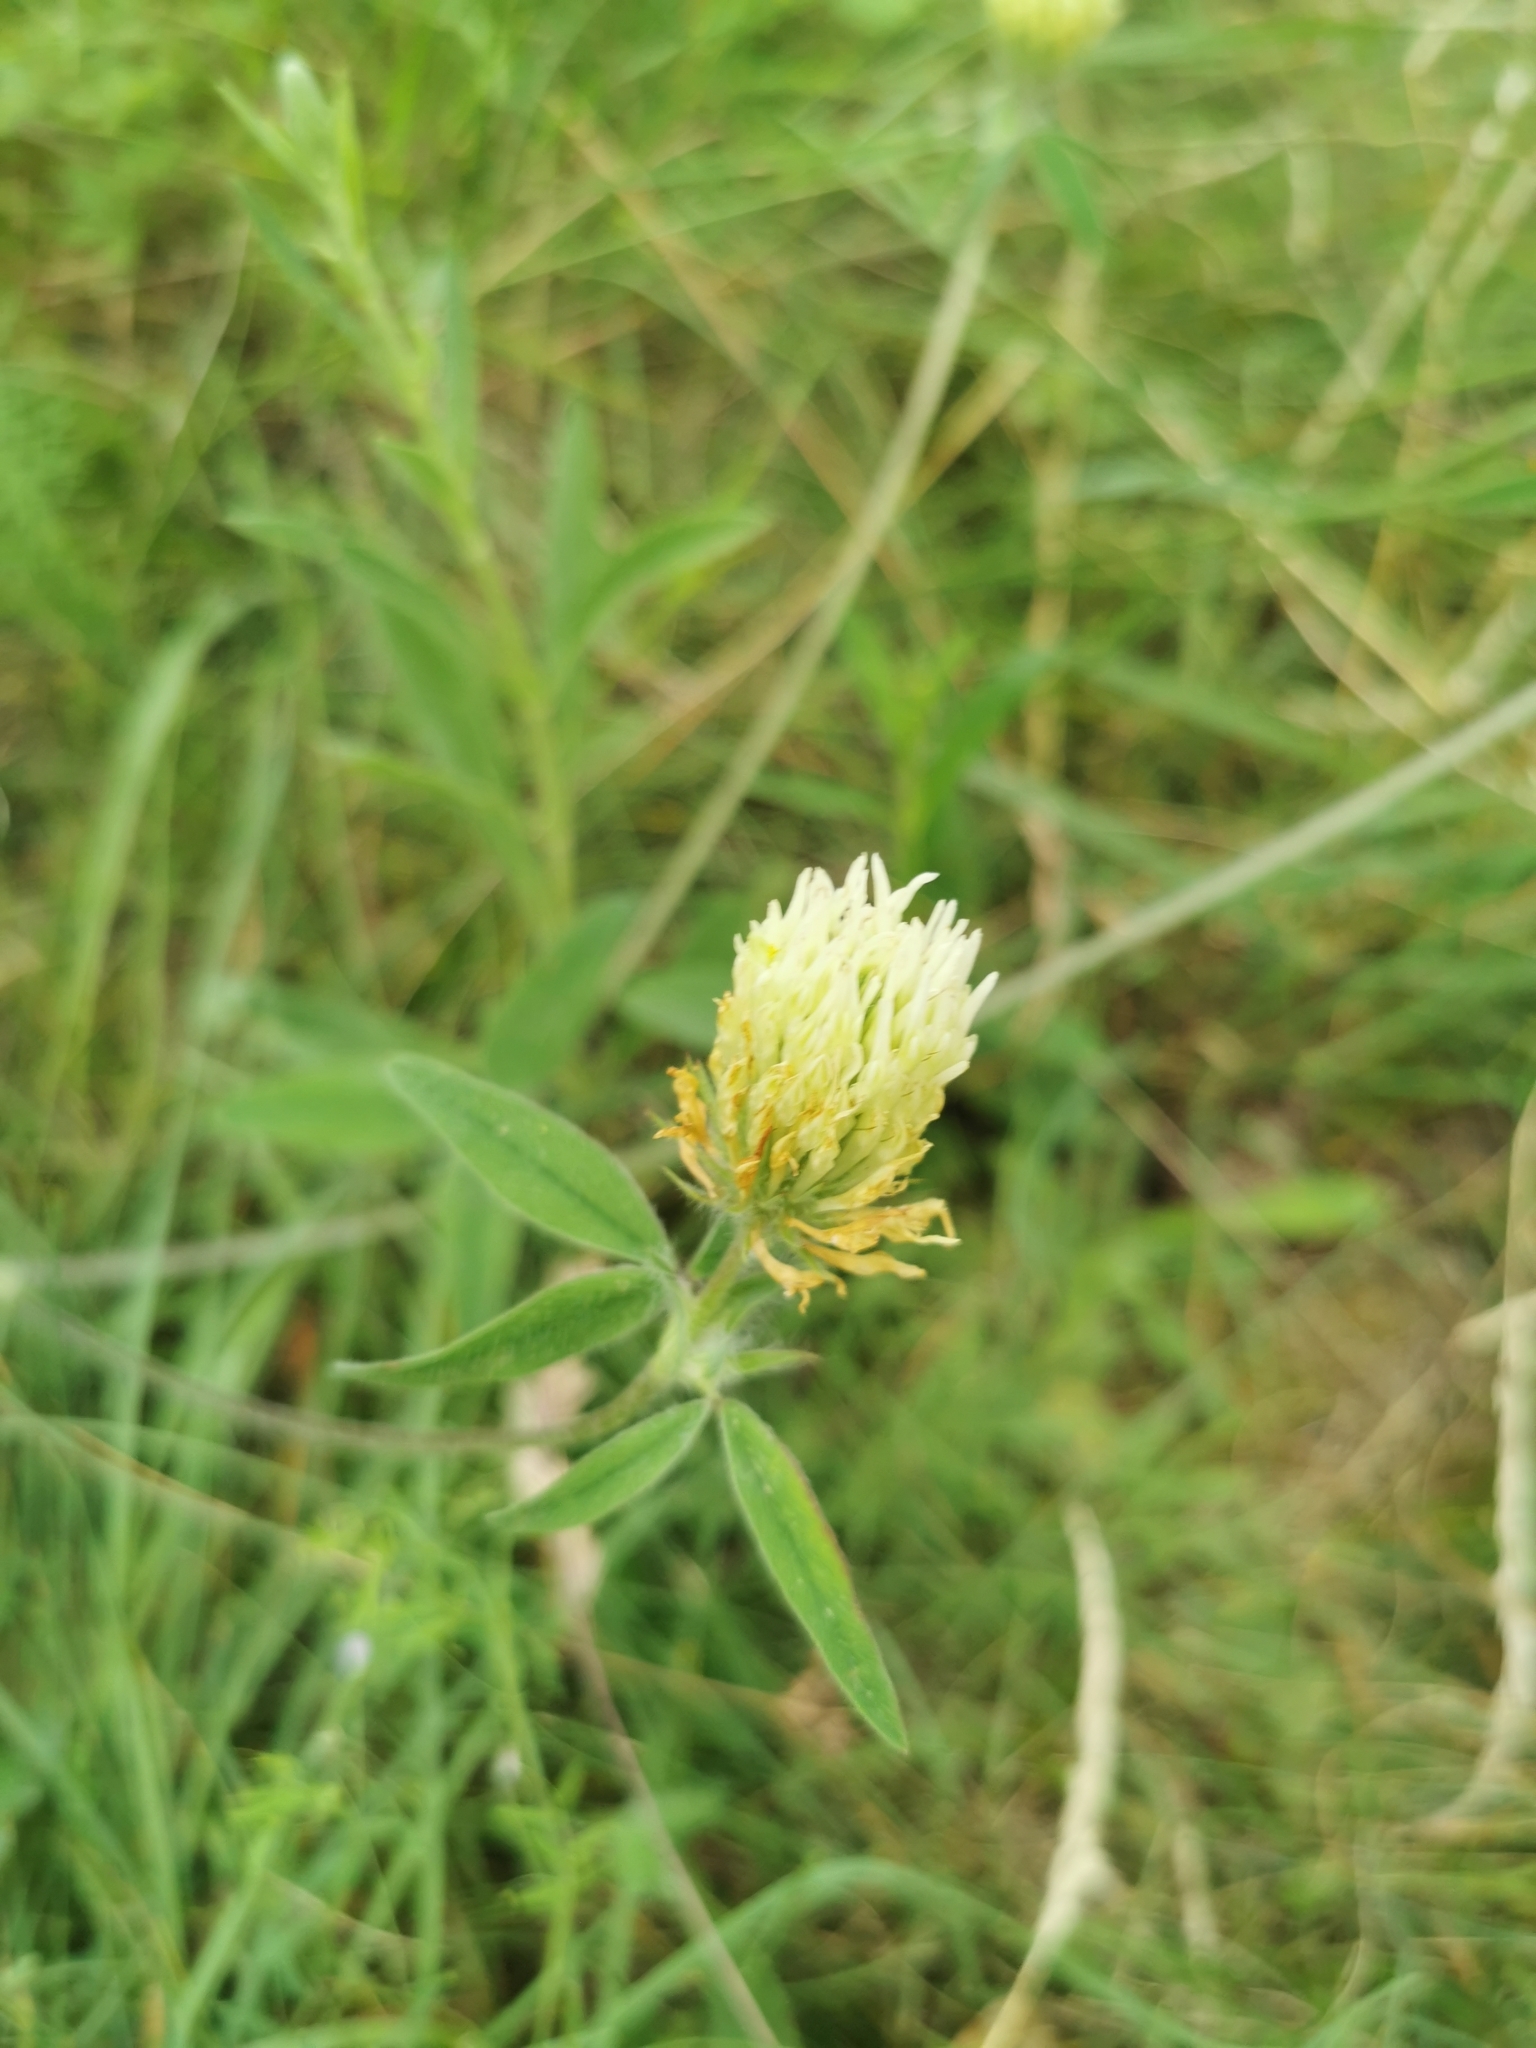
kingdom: Plantae
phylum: Tracheophyta
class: Magnoliopsida
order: Fabales
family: Fabaceae
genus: Trifolium
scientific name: Trifolium montanum
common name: Mountain clover
